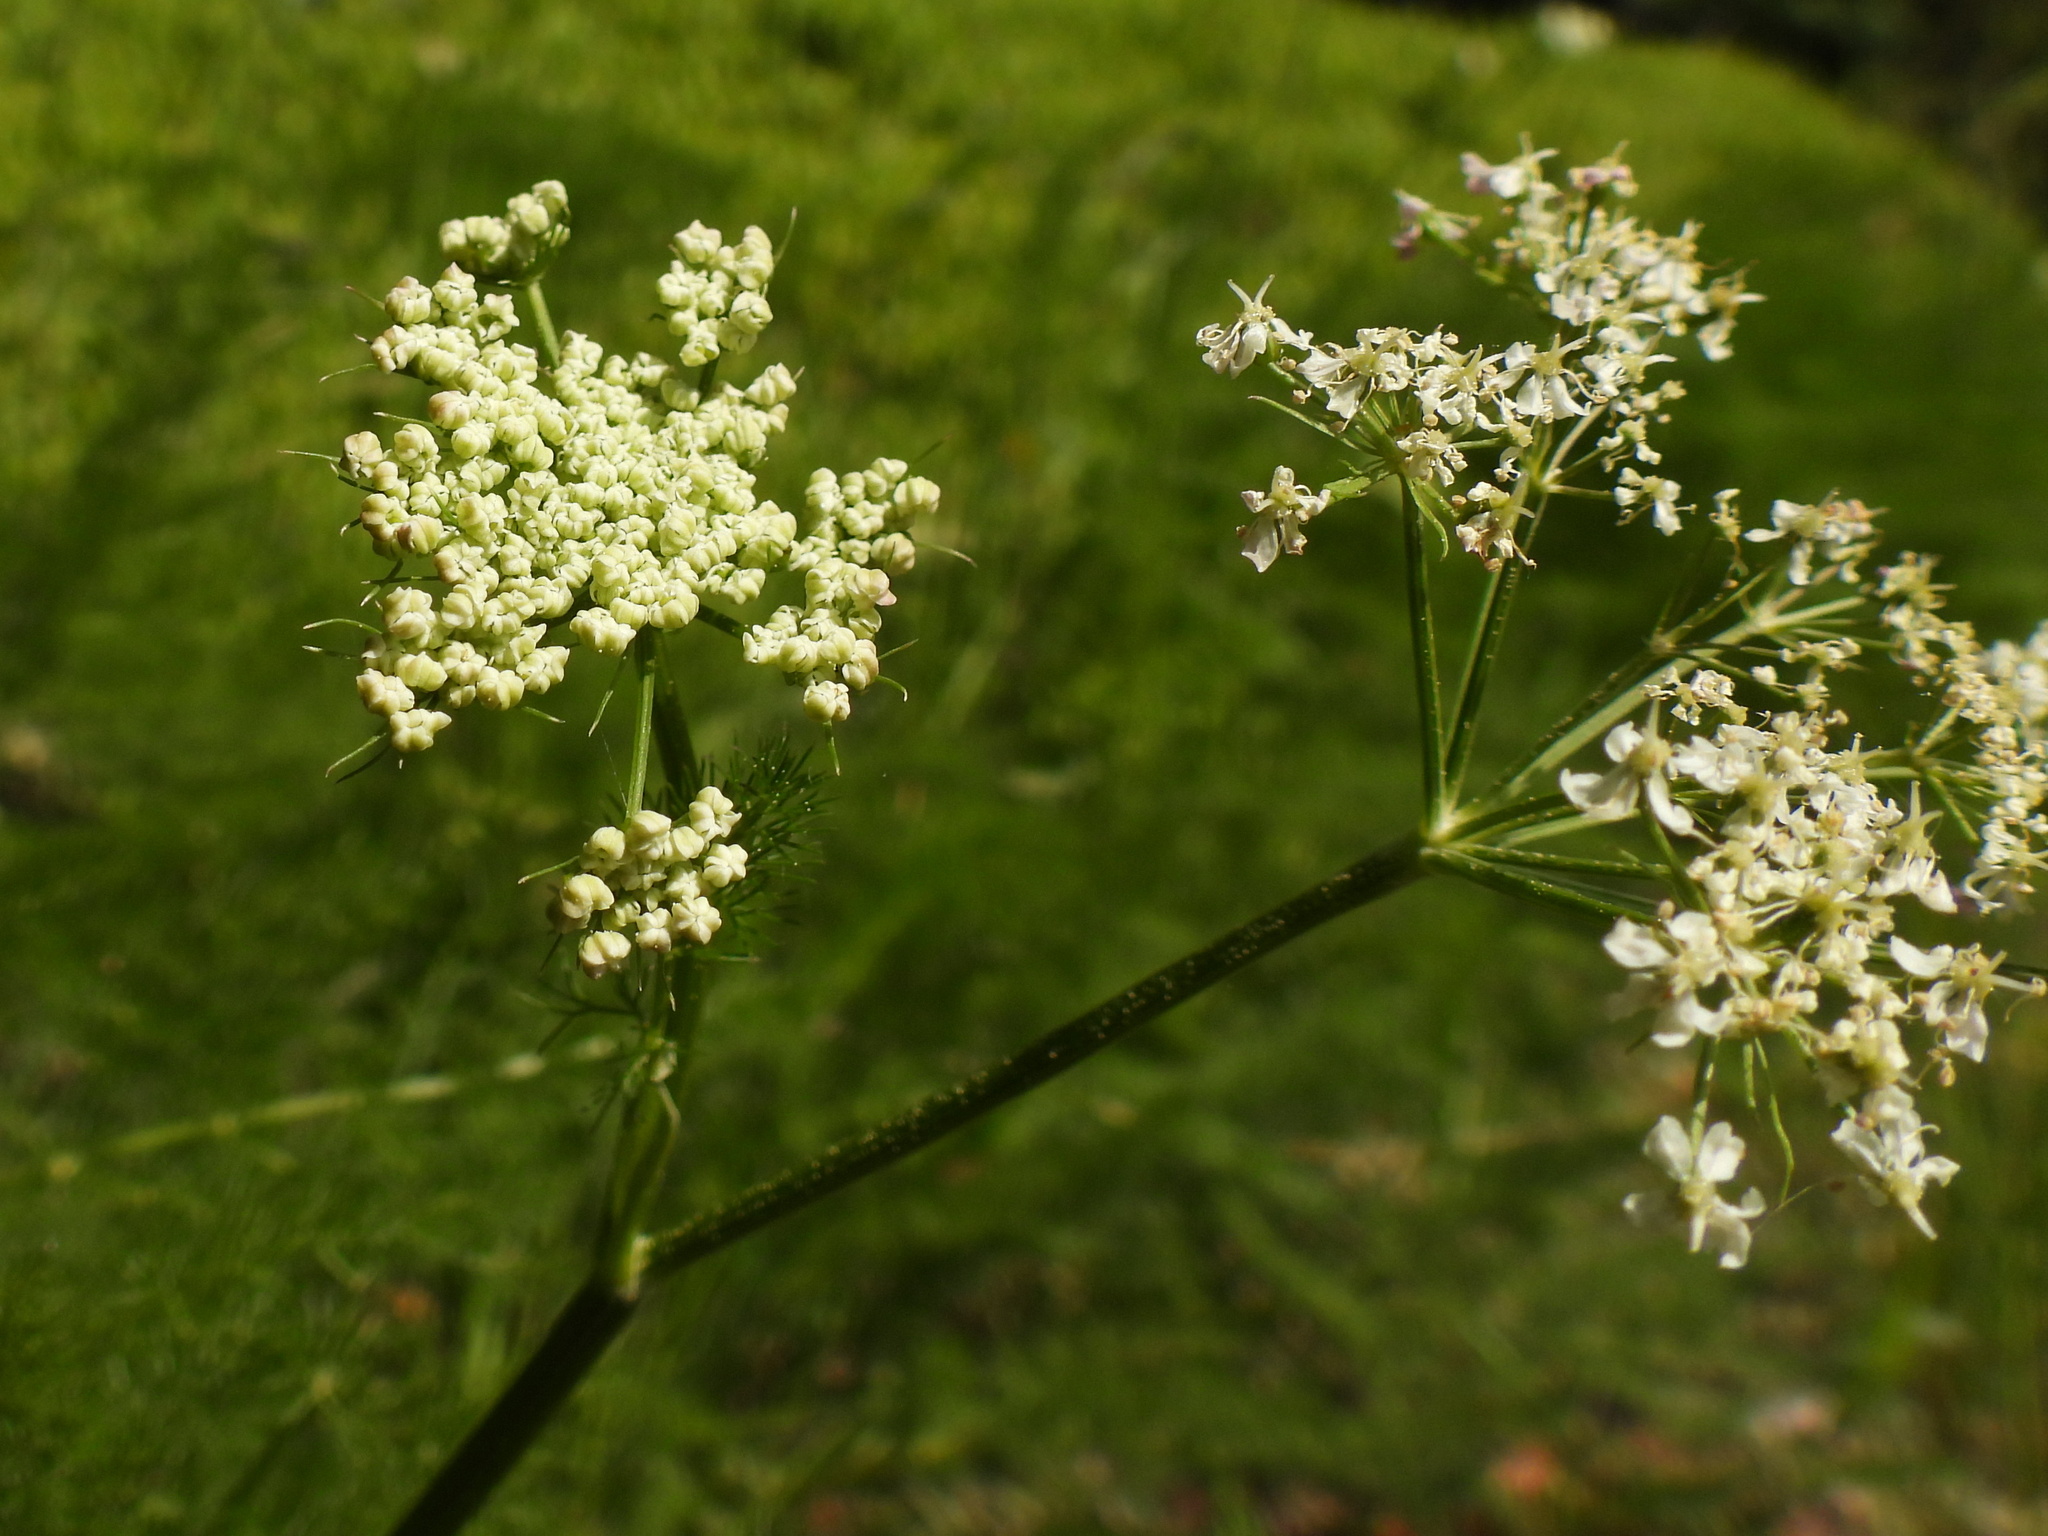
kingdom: Plantae
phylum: Tracheophyta
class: Magnoliopsida
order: Apiales
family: Apiaceae
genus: Meum
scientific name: Meum athamanticum
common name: Spignel
